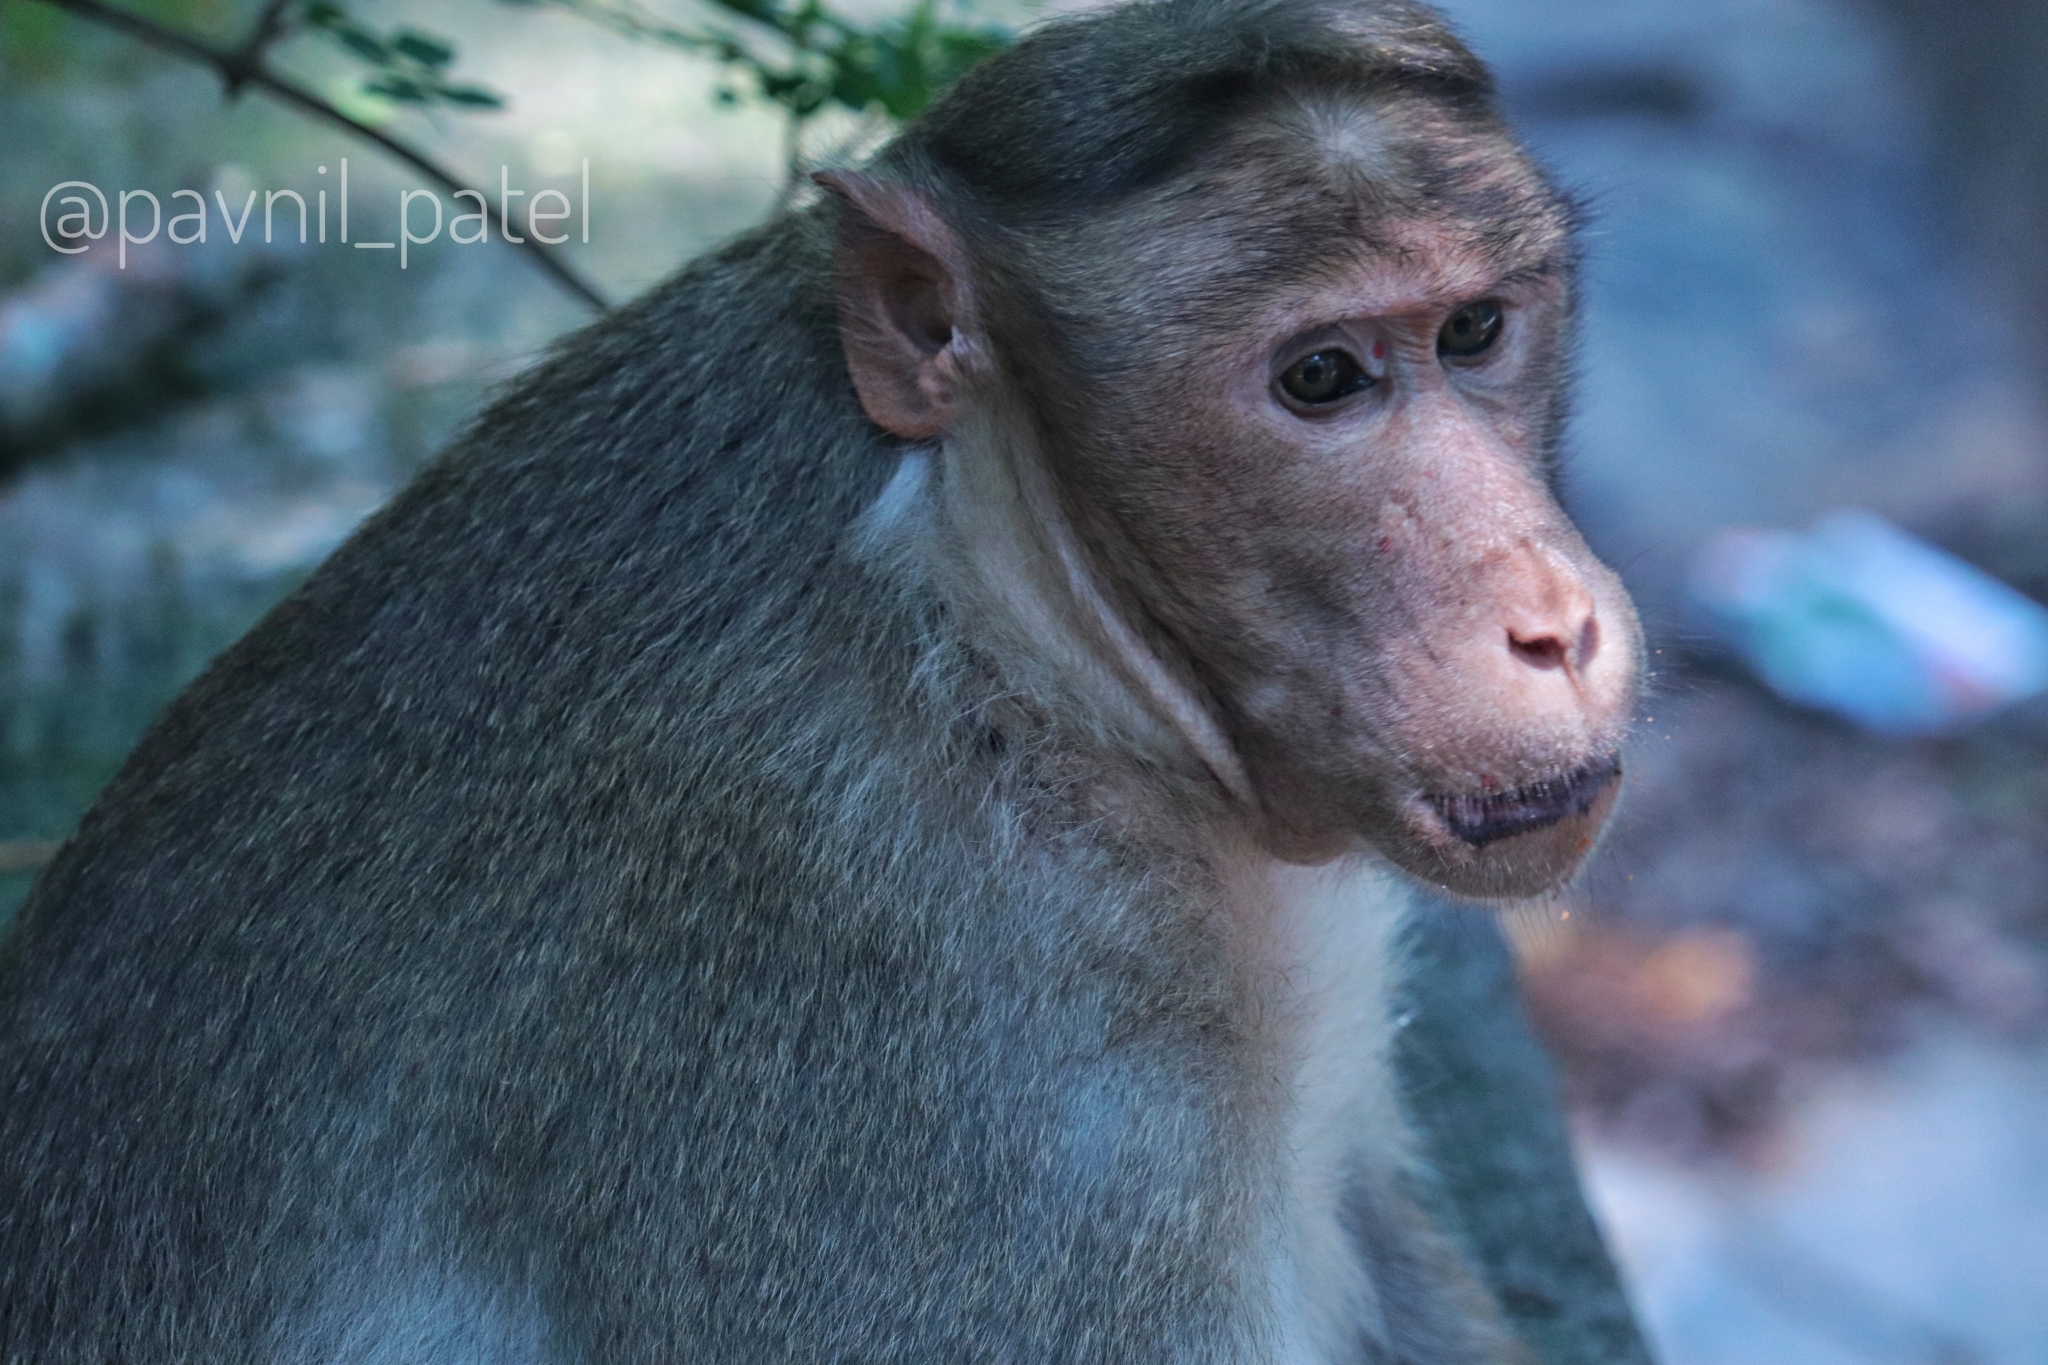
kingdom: Animalia
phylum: Chordata
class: Mammalia
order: Primates
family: Cercopithecidae
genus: Macaca
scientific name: Macaca radiata
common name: Bonnet macaque
